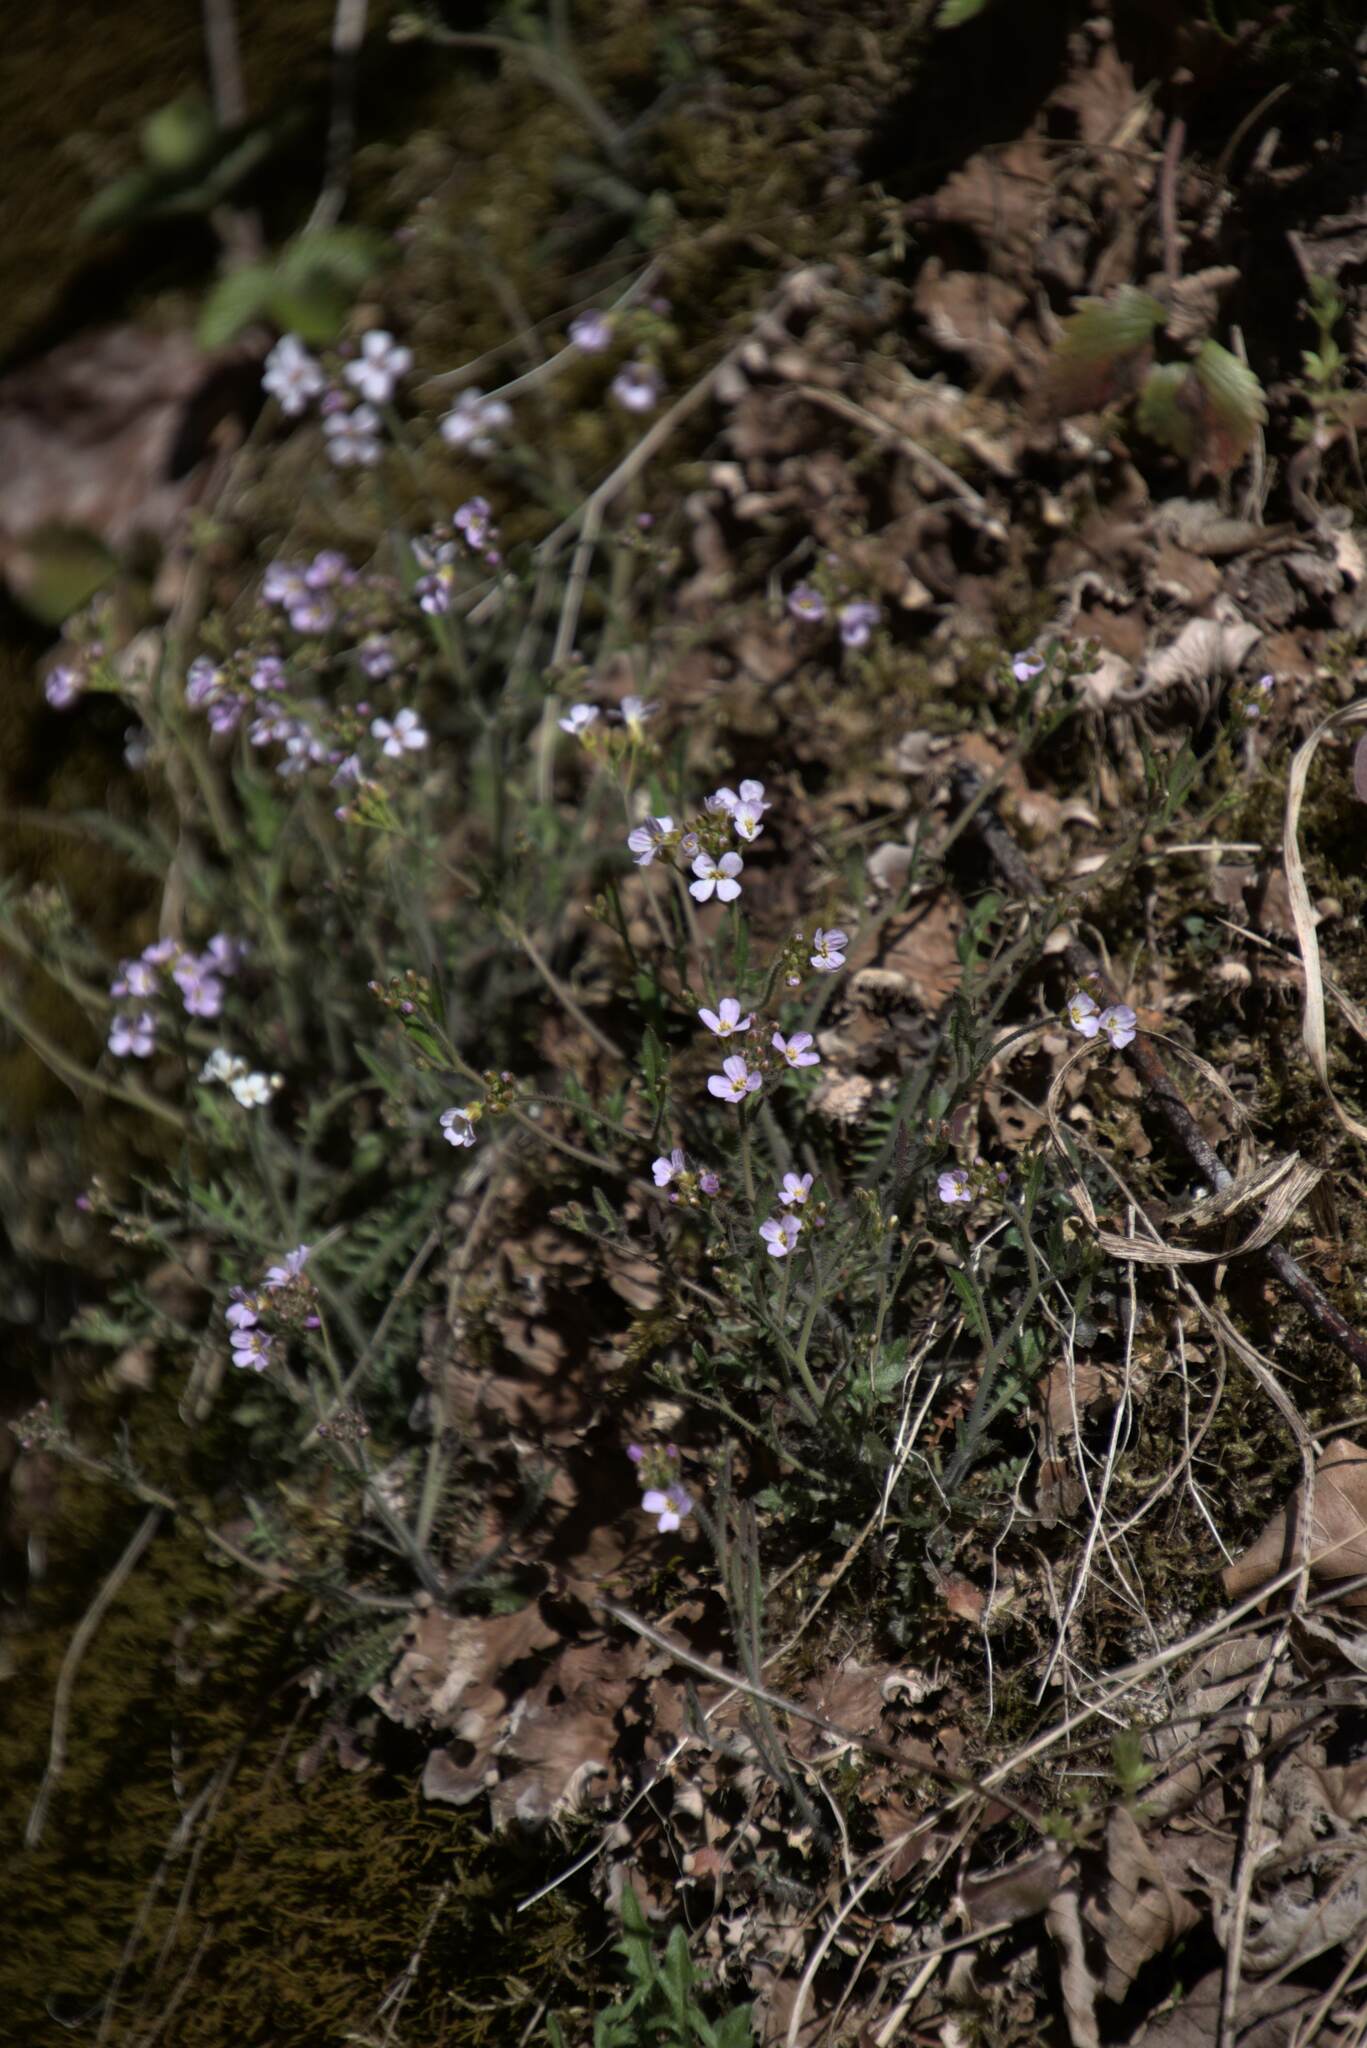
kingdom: Plantae
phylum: Tracheophyta
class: Magnoliopsida
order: Brassicales
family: Brassicaceae
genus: Arabidopsis
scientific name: Arabidopsis arenosa
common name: Sand rock-cress
